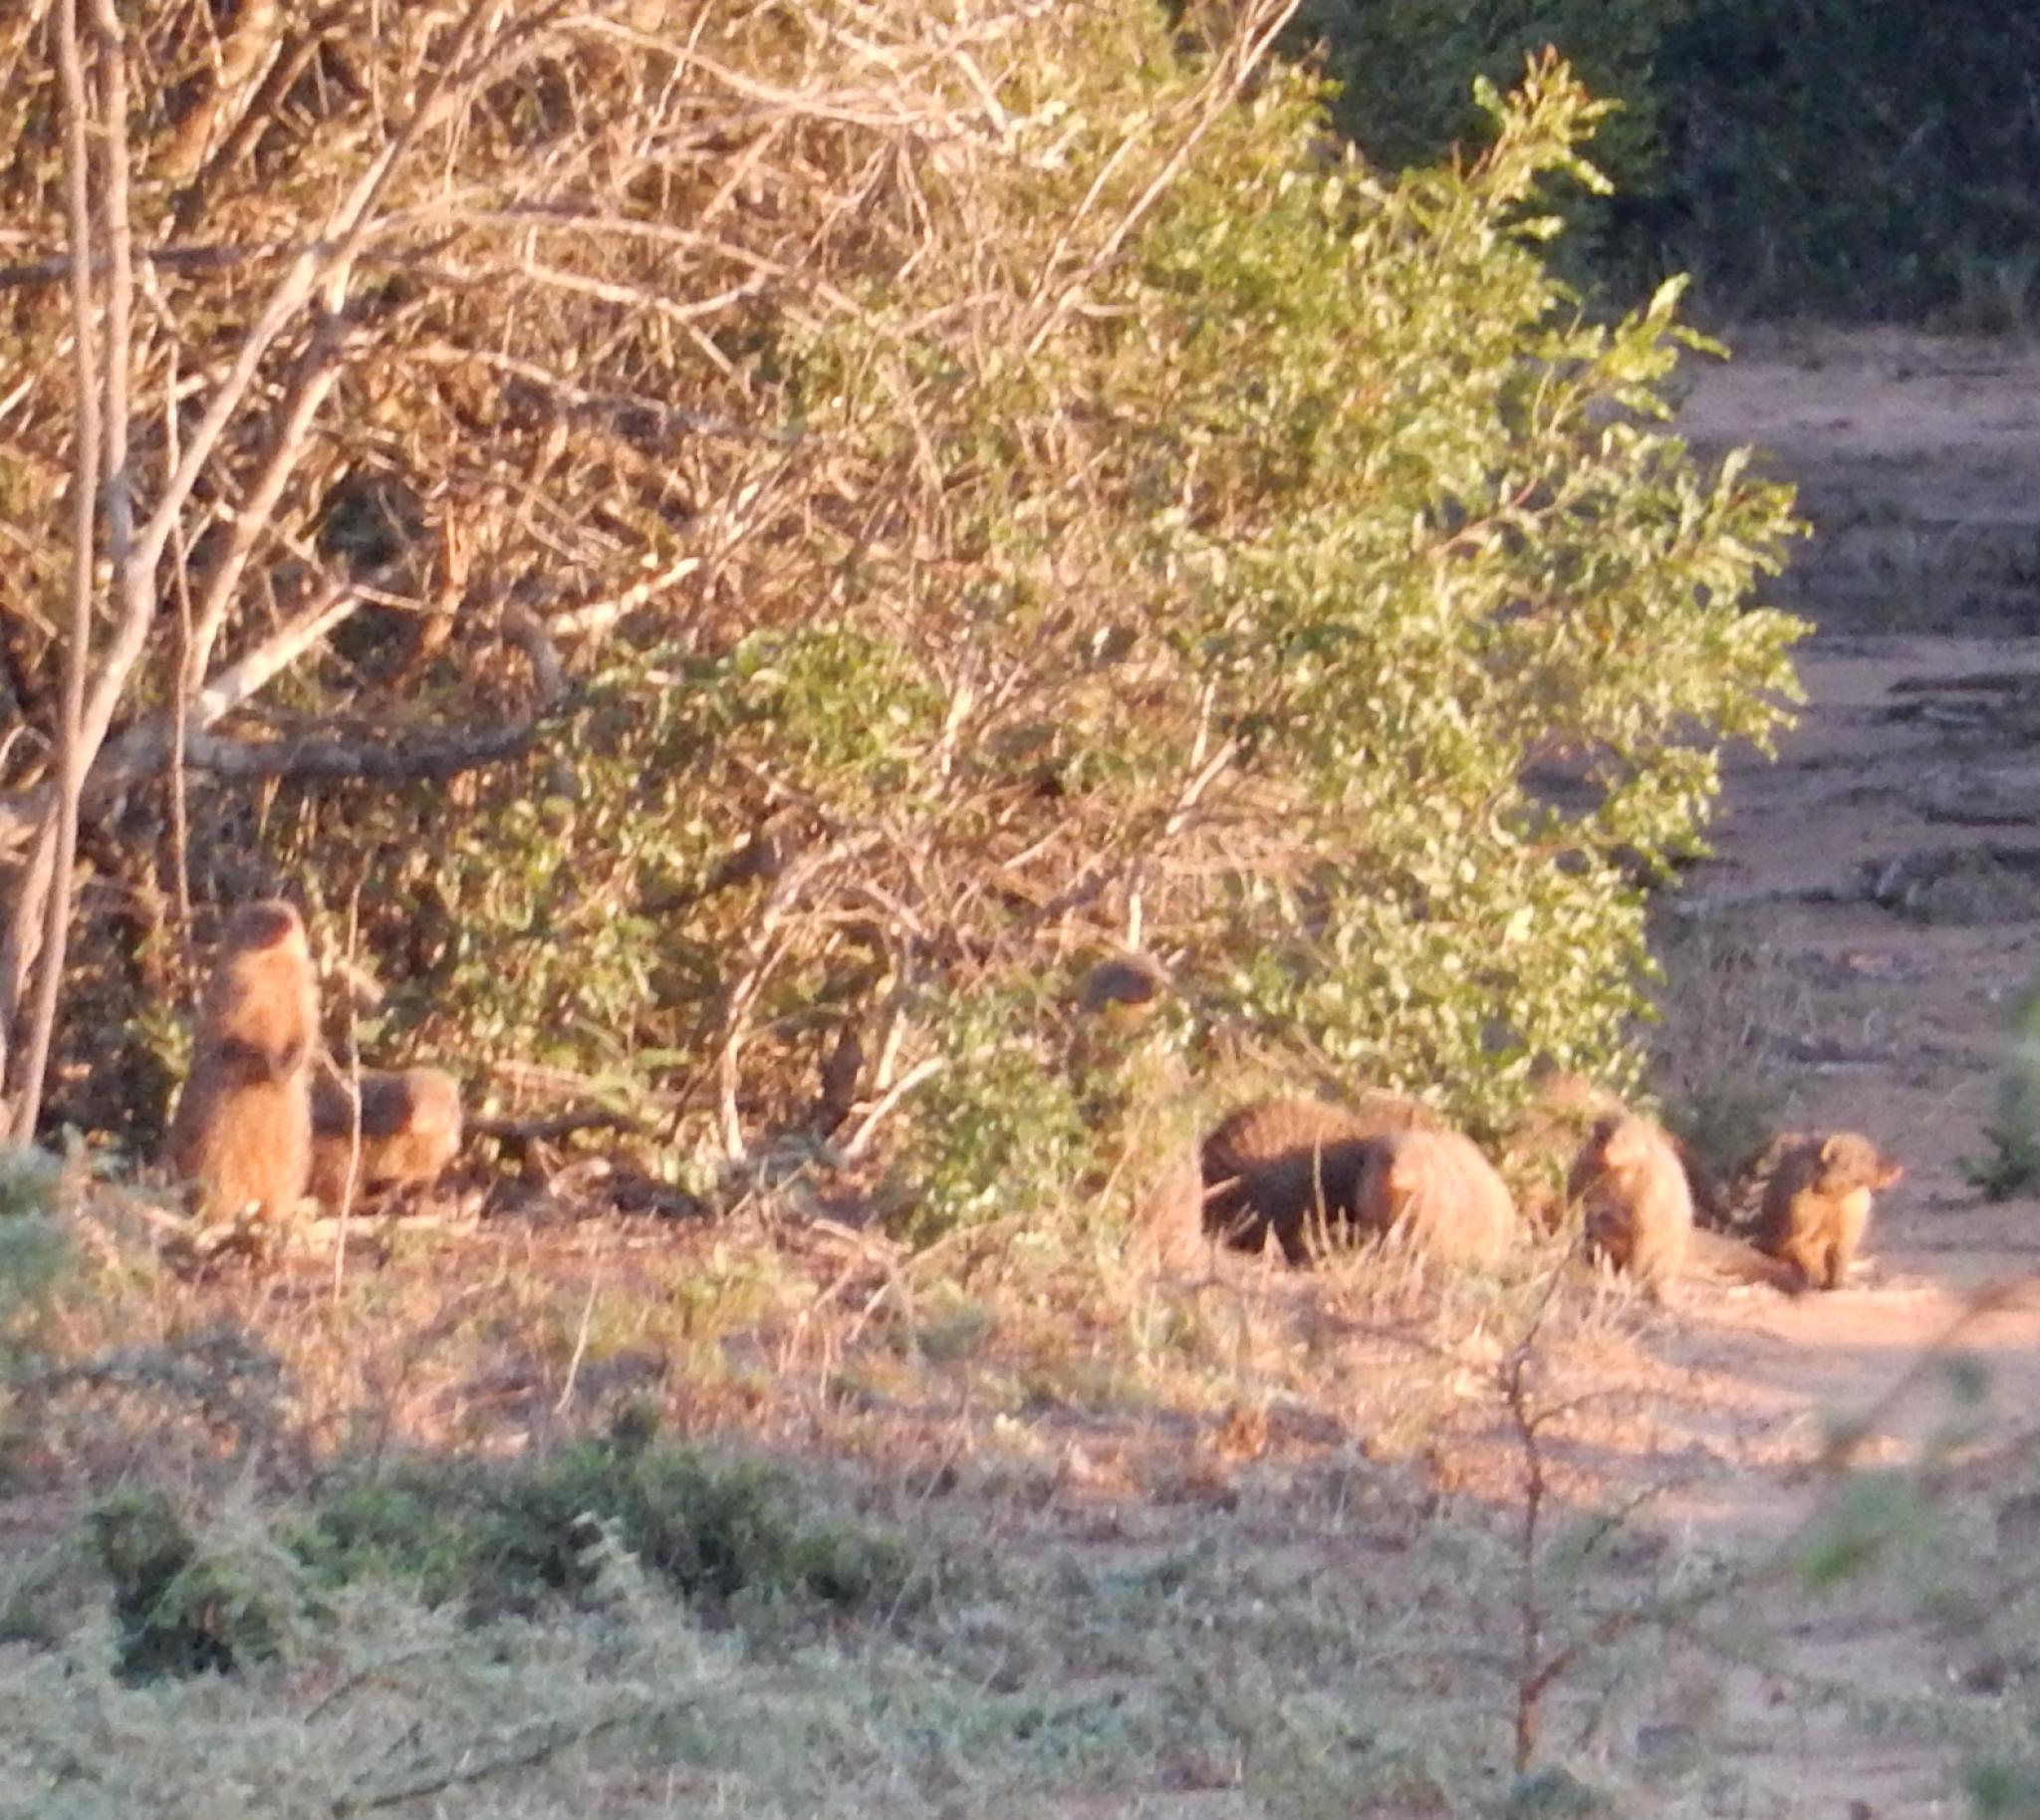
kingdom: Animalia
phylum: Chordata
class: Mammalia
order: Carnivora
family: Herpestidae
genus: Mungos
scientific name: Mungos mungo
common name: Banded mongoose
